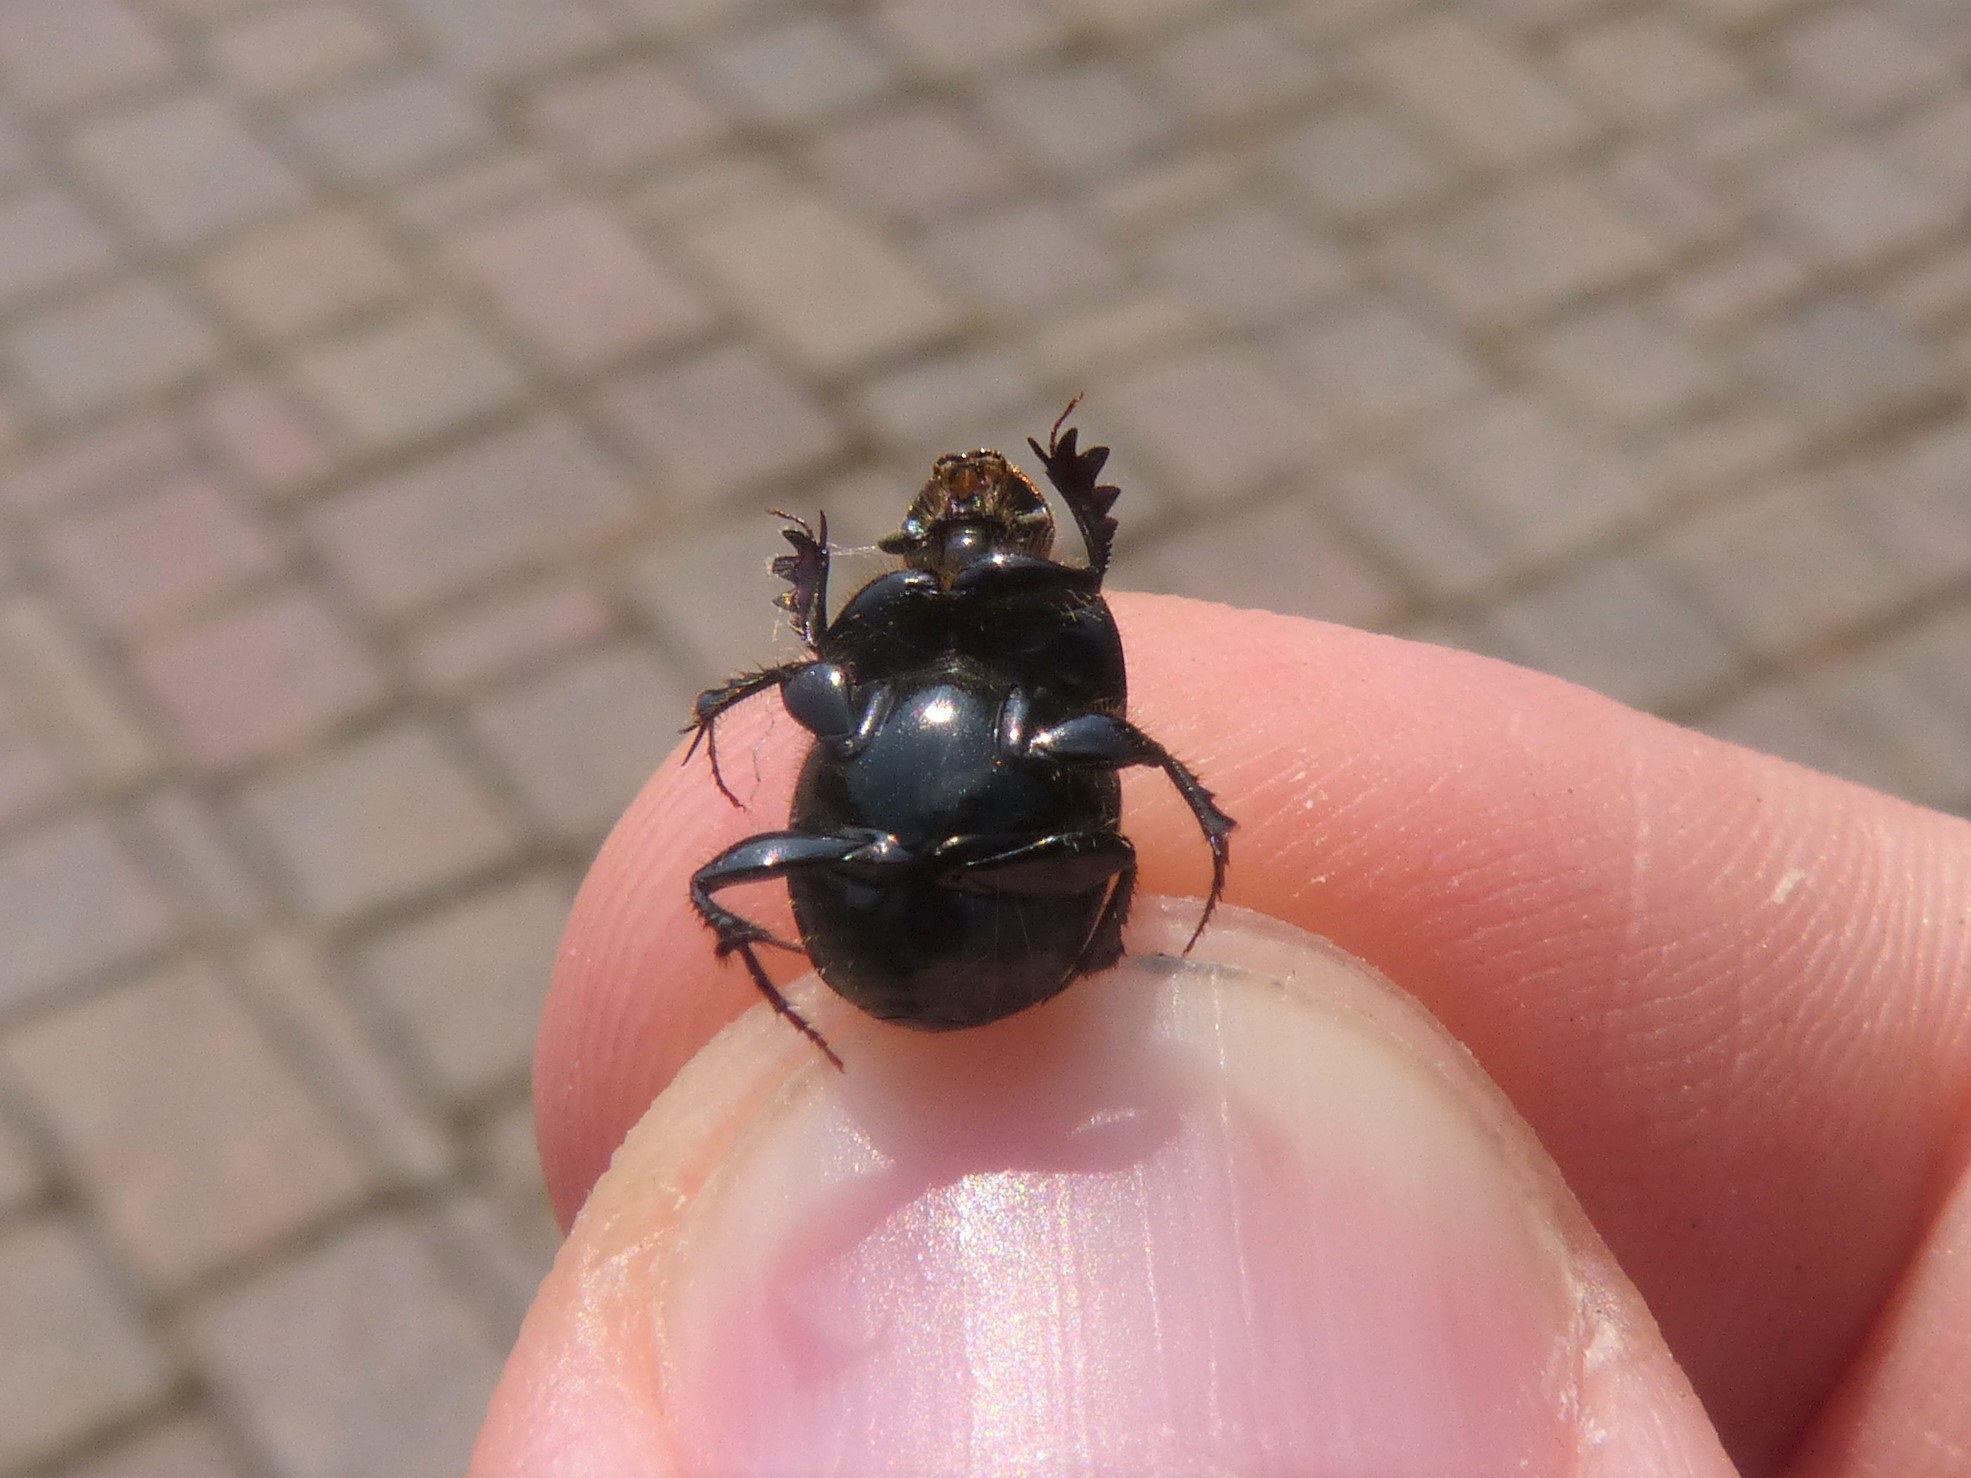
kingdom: Animalia
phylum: Arthropoda
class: Insecta
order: Coleoptera
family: Scarabaeidae
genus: Onthophagus
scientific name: Onthophagus taurus
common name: Bullhorned dung beetle
